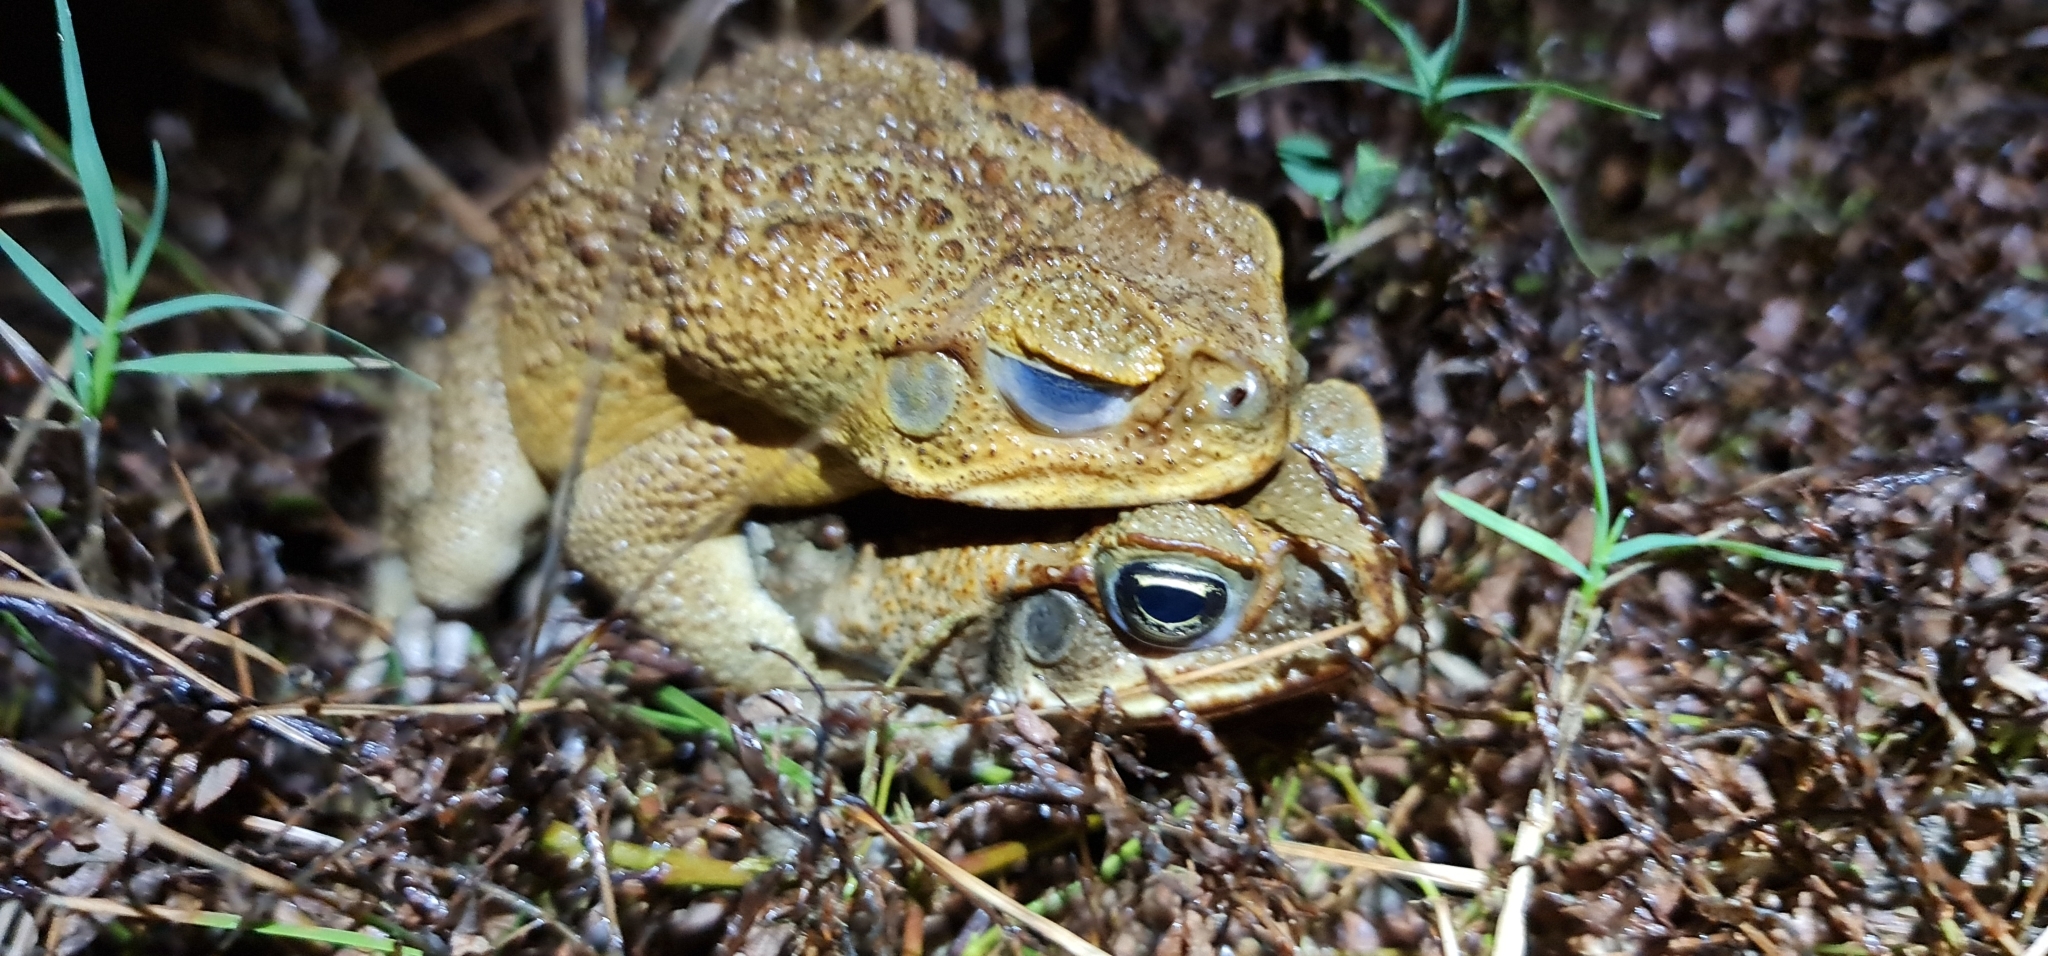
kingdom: Animalia
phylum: Chordata
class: Amphibia
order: Anura
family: Bufonidae
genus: Rhinella
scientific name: Rhinella marina
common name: Cane toad
